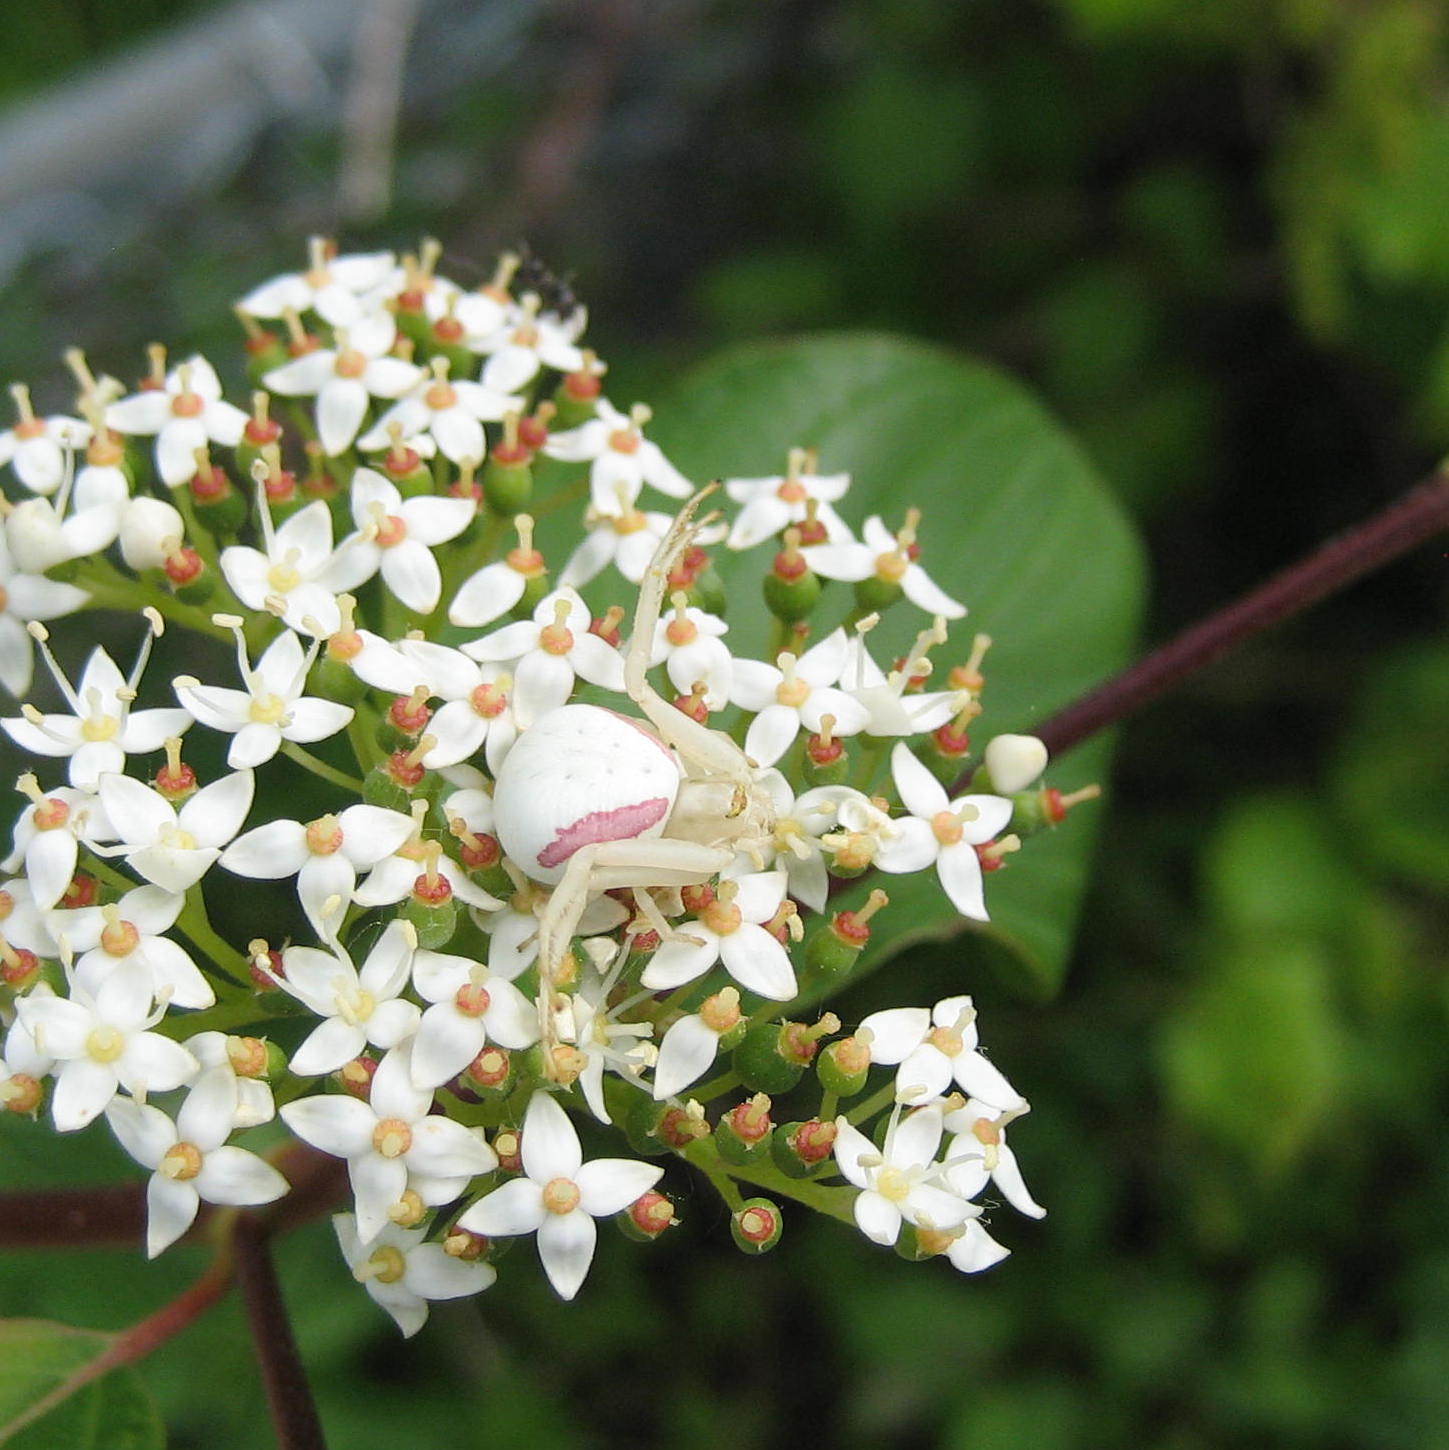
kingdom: Animalia
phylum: Arthropoda
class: Arachnida
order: Araneae
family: Thomisidae
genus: Misumena
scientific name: Misumena vatia
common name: Goldenrod crab spider
